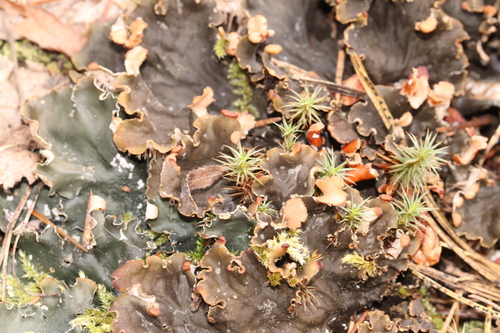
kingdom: Fungi
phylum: Ascomycota
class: Lecanoromycetes
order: Peltigerales
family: Peltigeraceae
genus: Peltigera
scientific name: Peltigera
